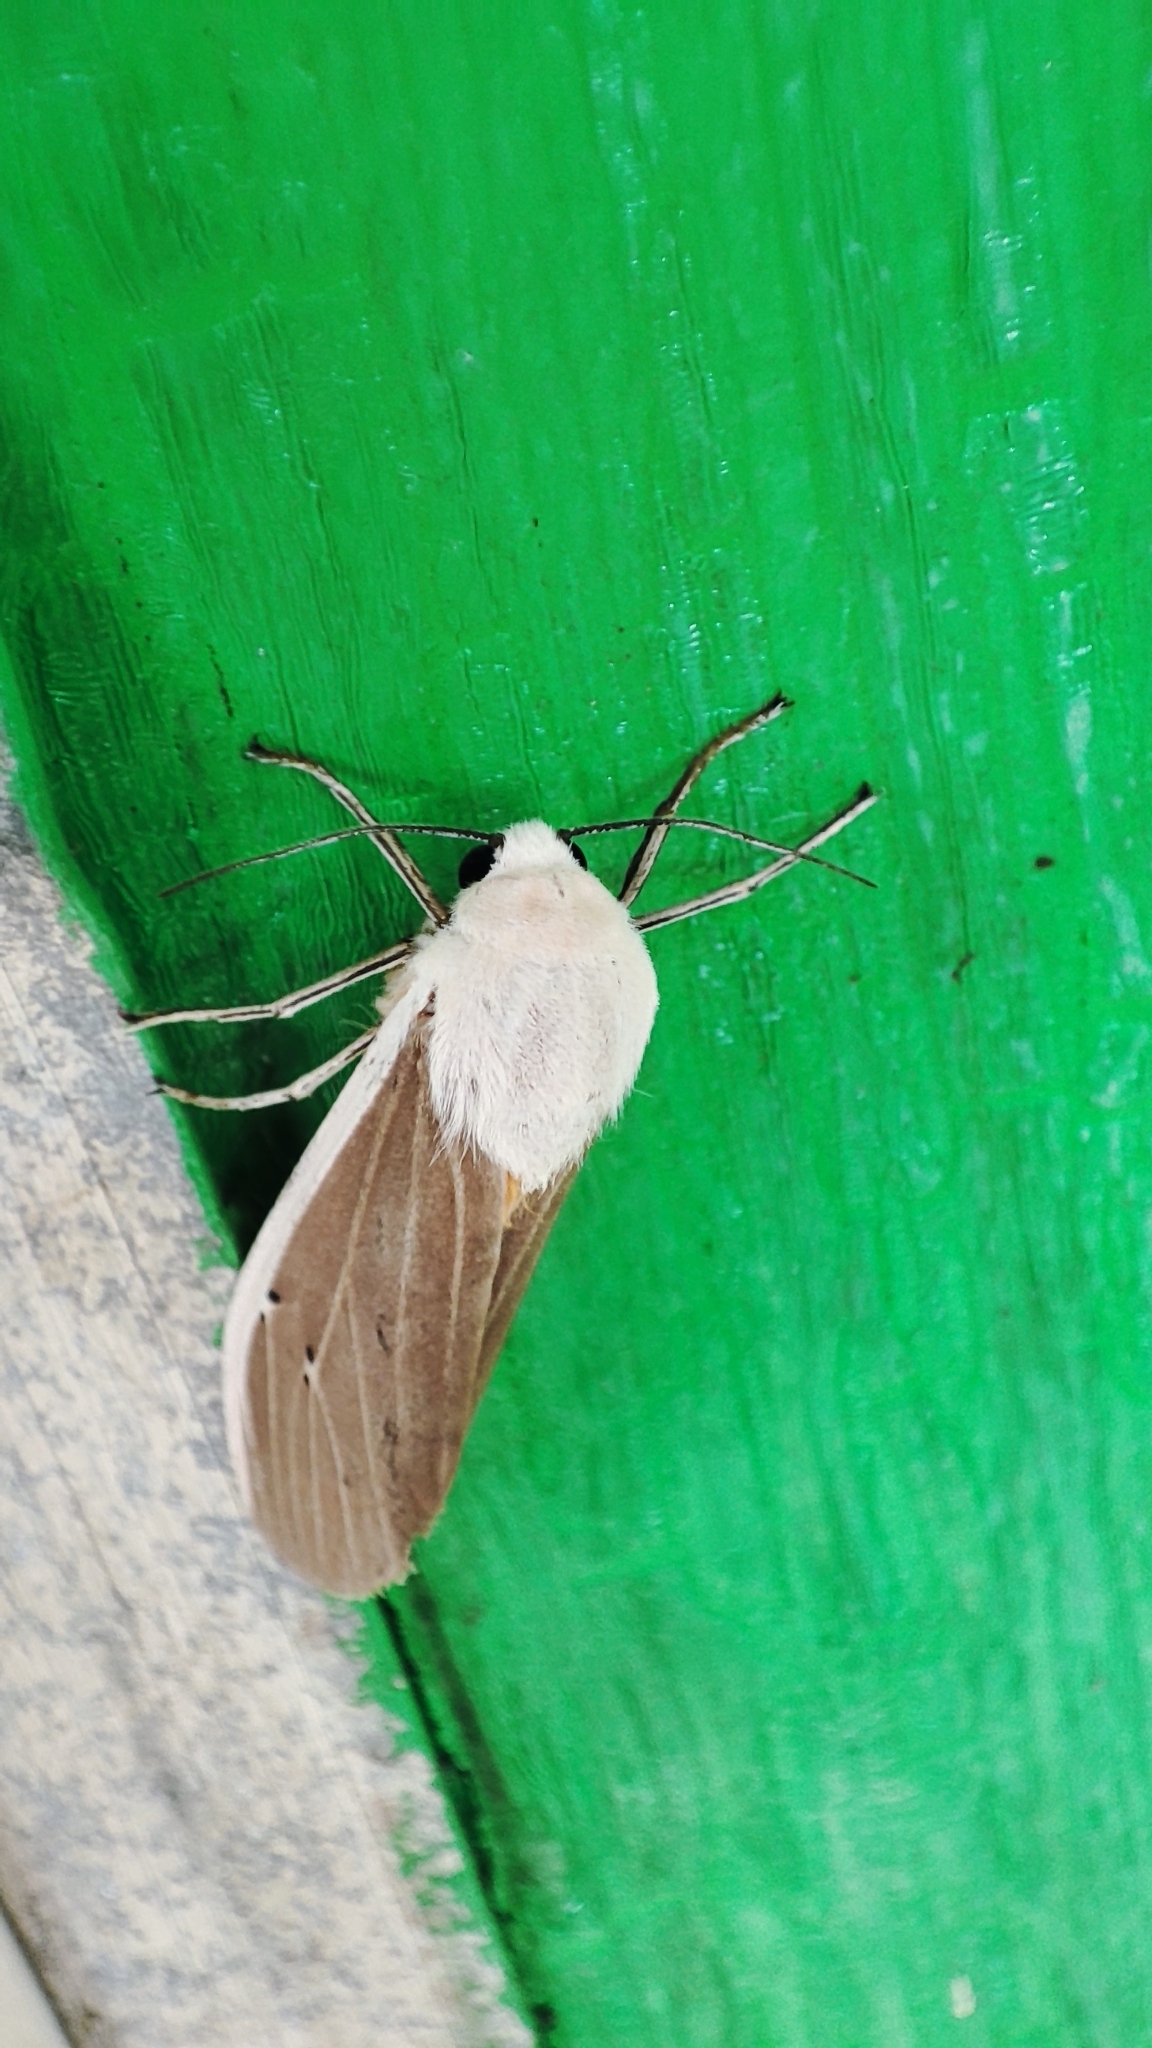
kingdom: Animalia
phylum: Arthropoda
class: Insecta
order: Lepidoptera
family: Erebidae
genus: Creatonotos
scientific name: Creatonotos transiens
